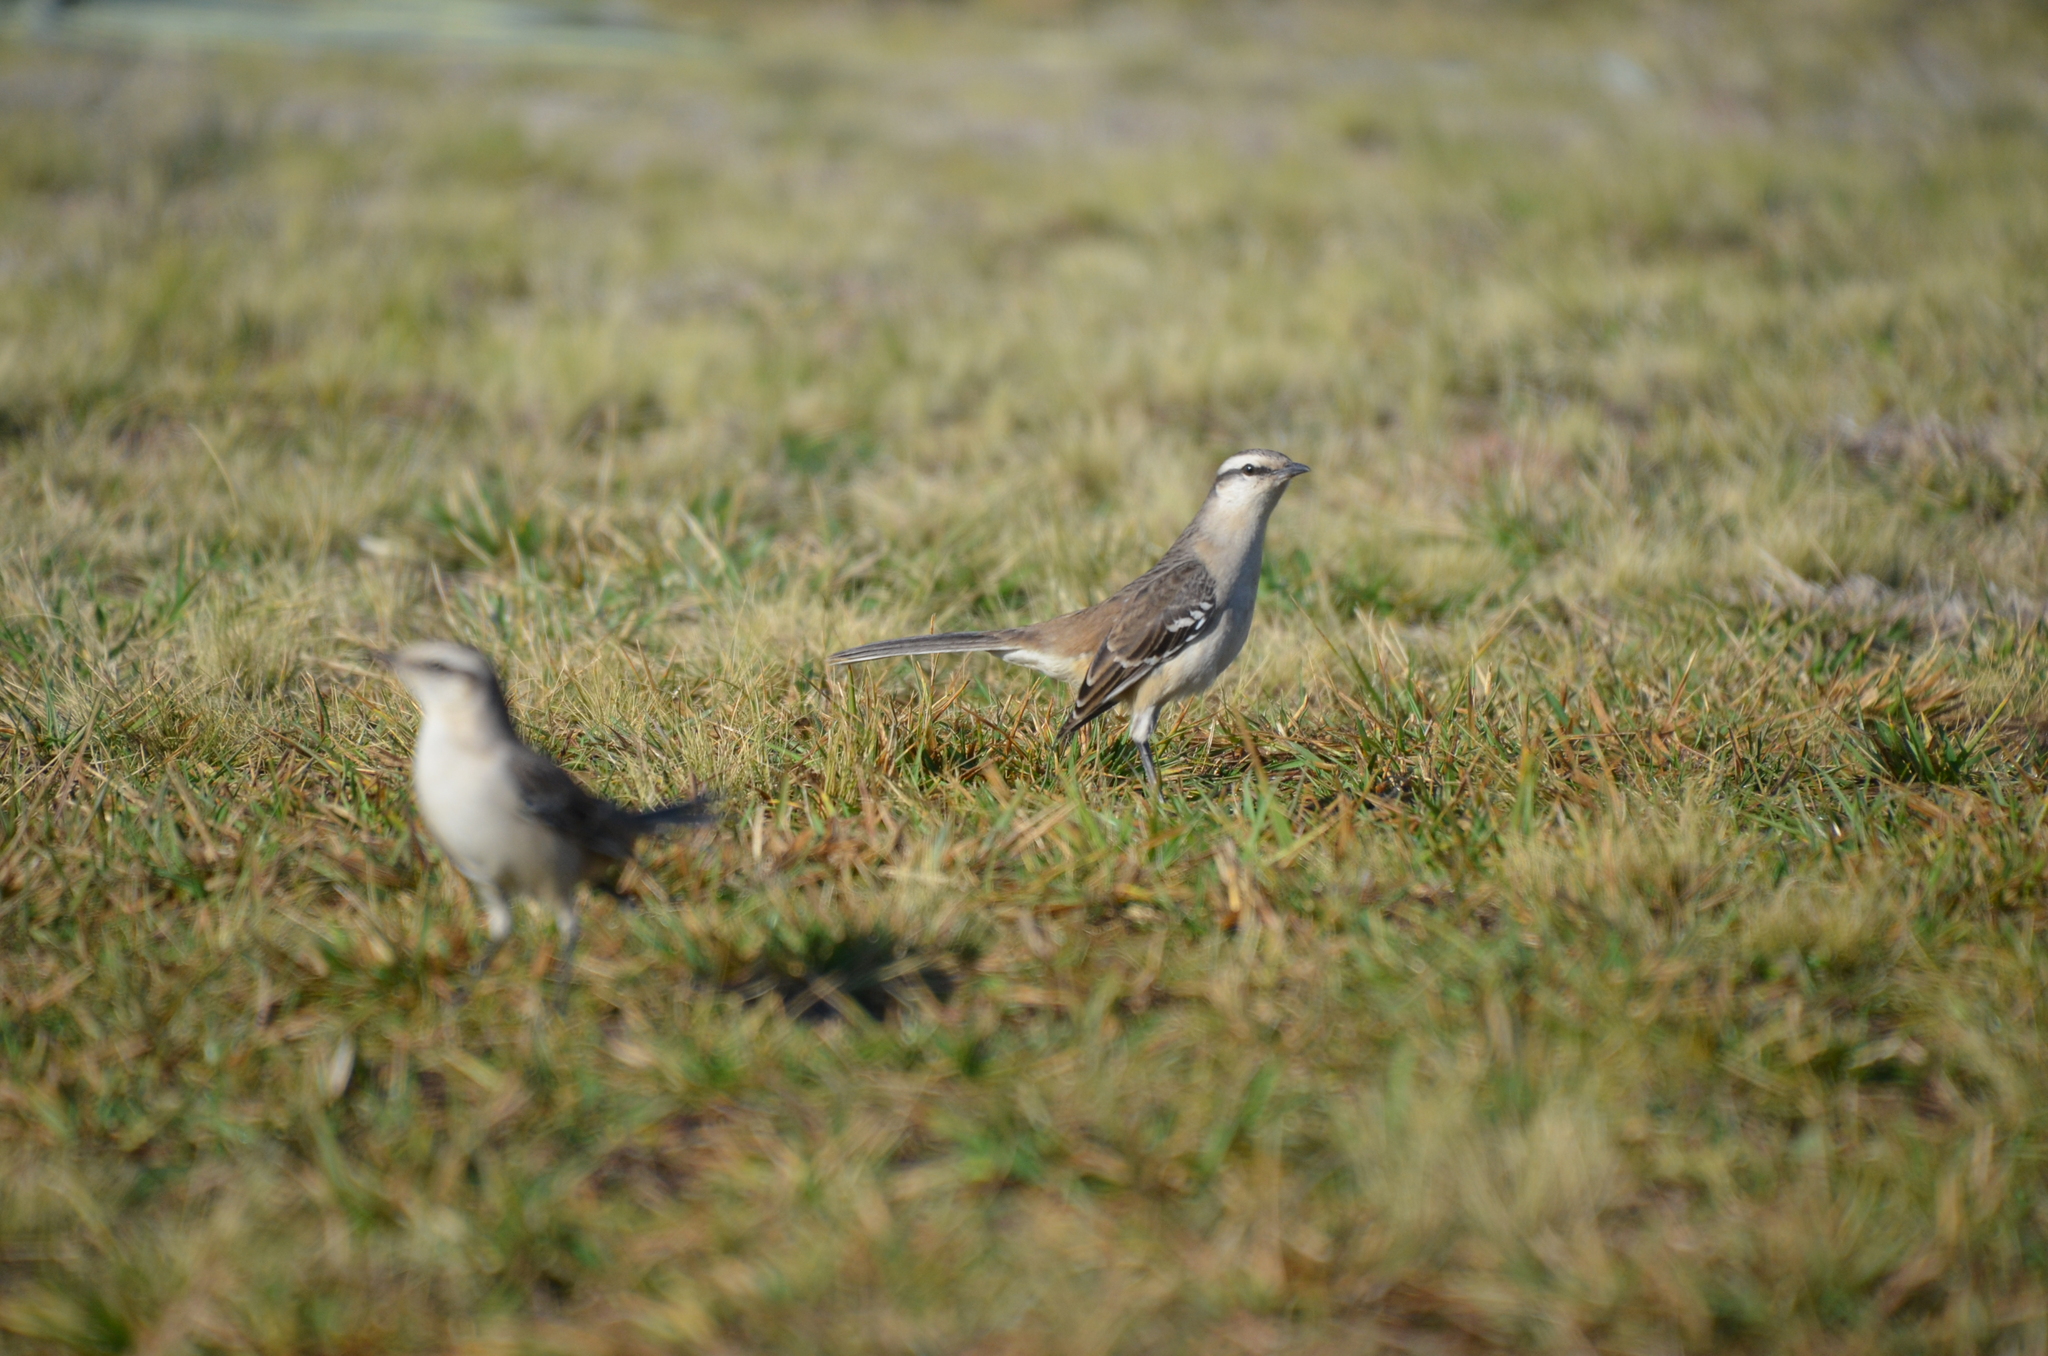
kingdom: Animalia
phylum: Chordata
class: Aves
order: Passeriformes
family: Mimidae
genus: Mimus
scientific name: Mimus saturninus
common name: Chalk-browed mockingbird
